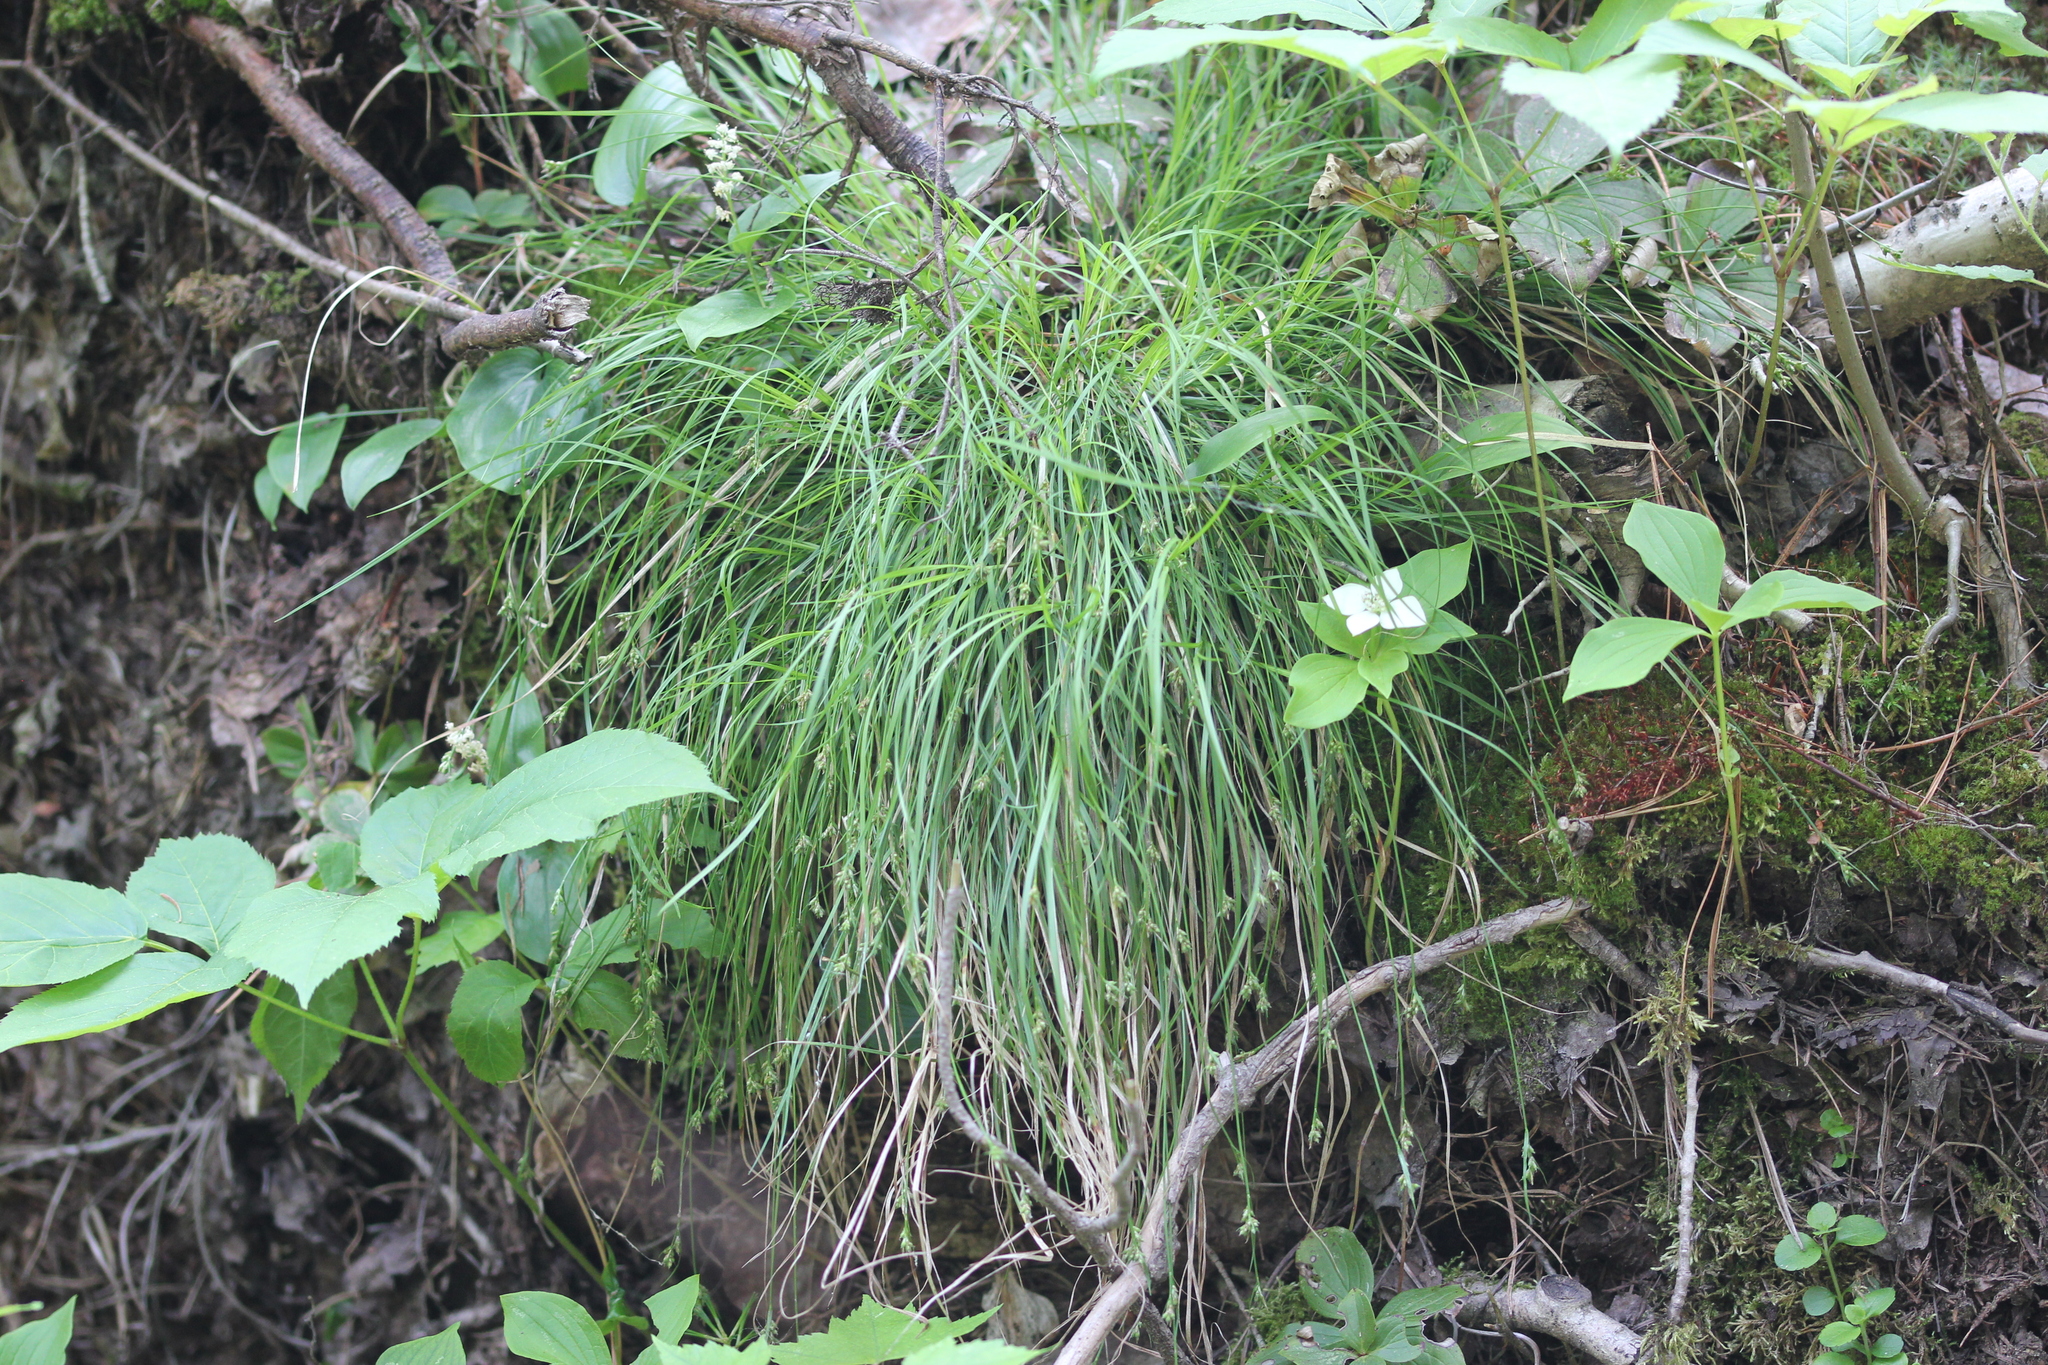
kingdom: Plantae
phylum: Tracheophyta
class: Liliopsida
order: Poales
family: Cyperaceae
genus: Carex
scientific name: Carex deflexa
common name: Bent northern sedge
